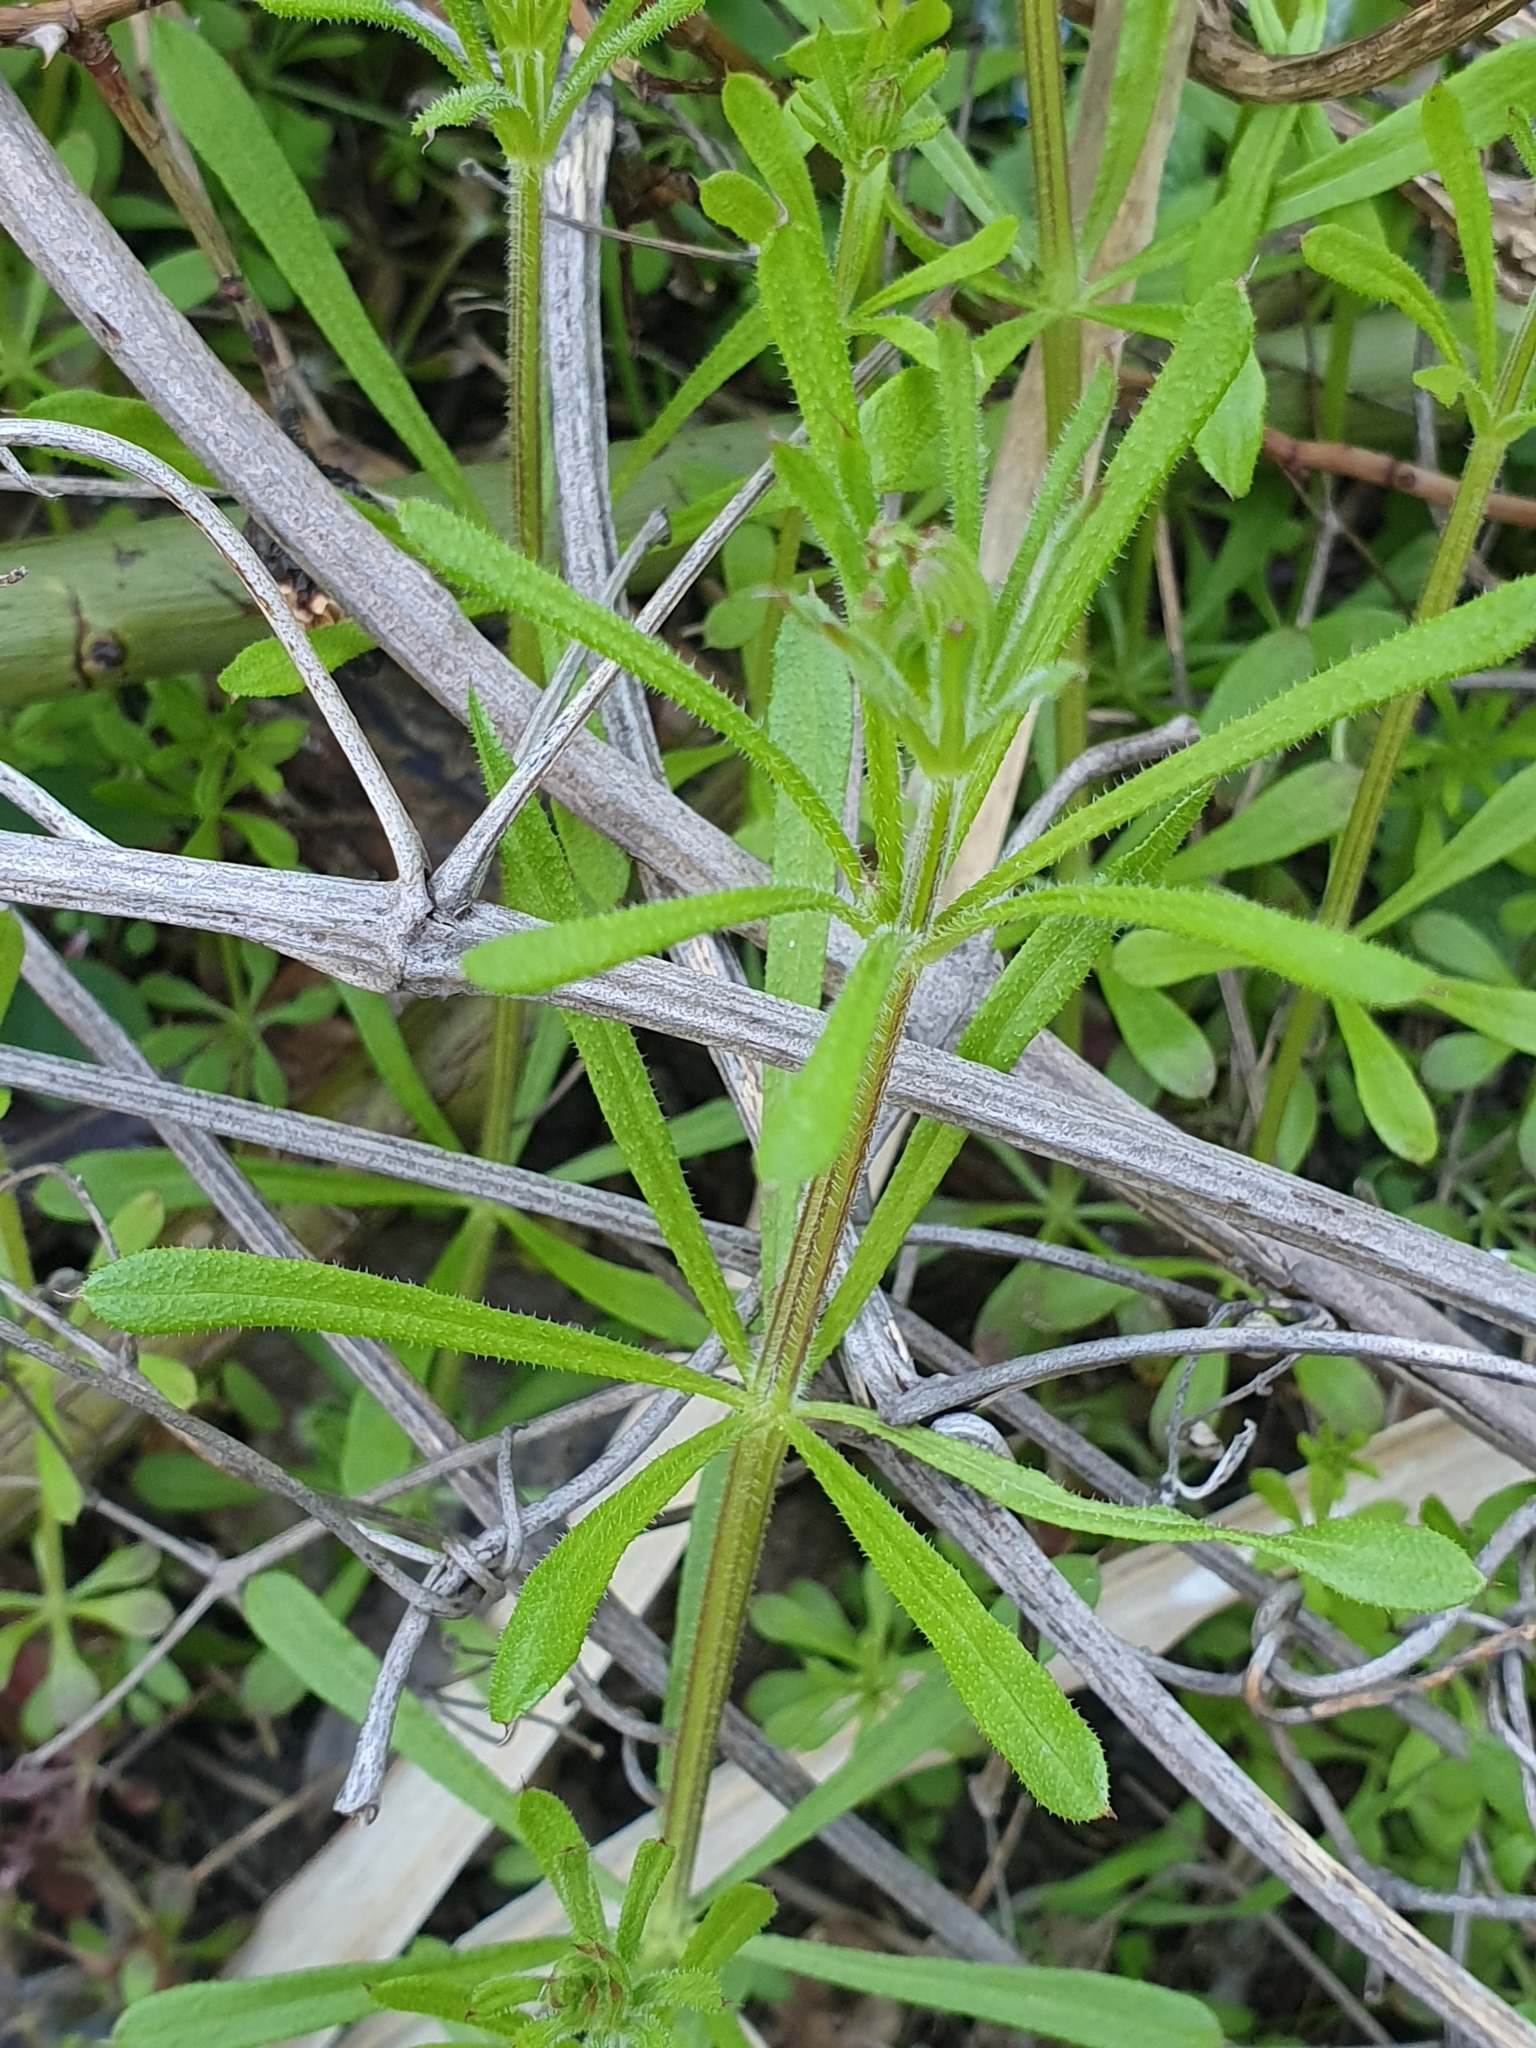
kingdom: Plantae
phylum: Tracheophyta
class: Magnoliopsida
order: Gentianales
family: Rubiaceae
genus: Galium
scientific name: Galium aparine
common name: Cleavers
